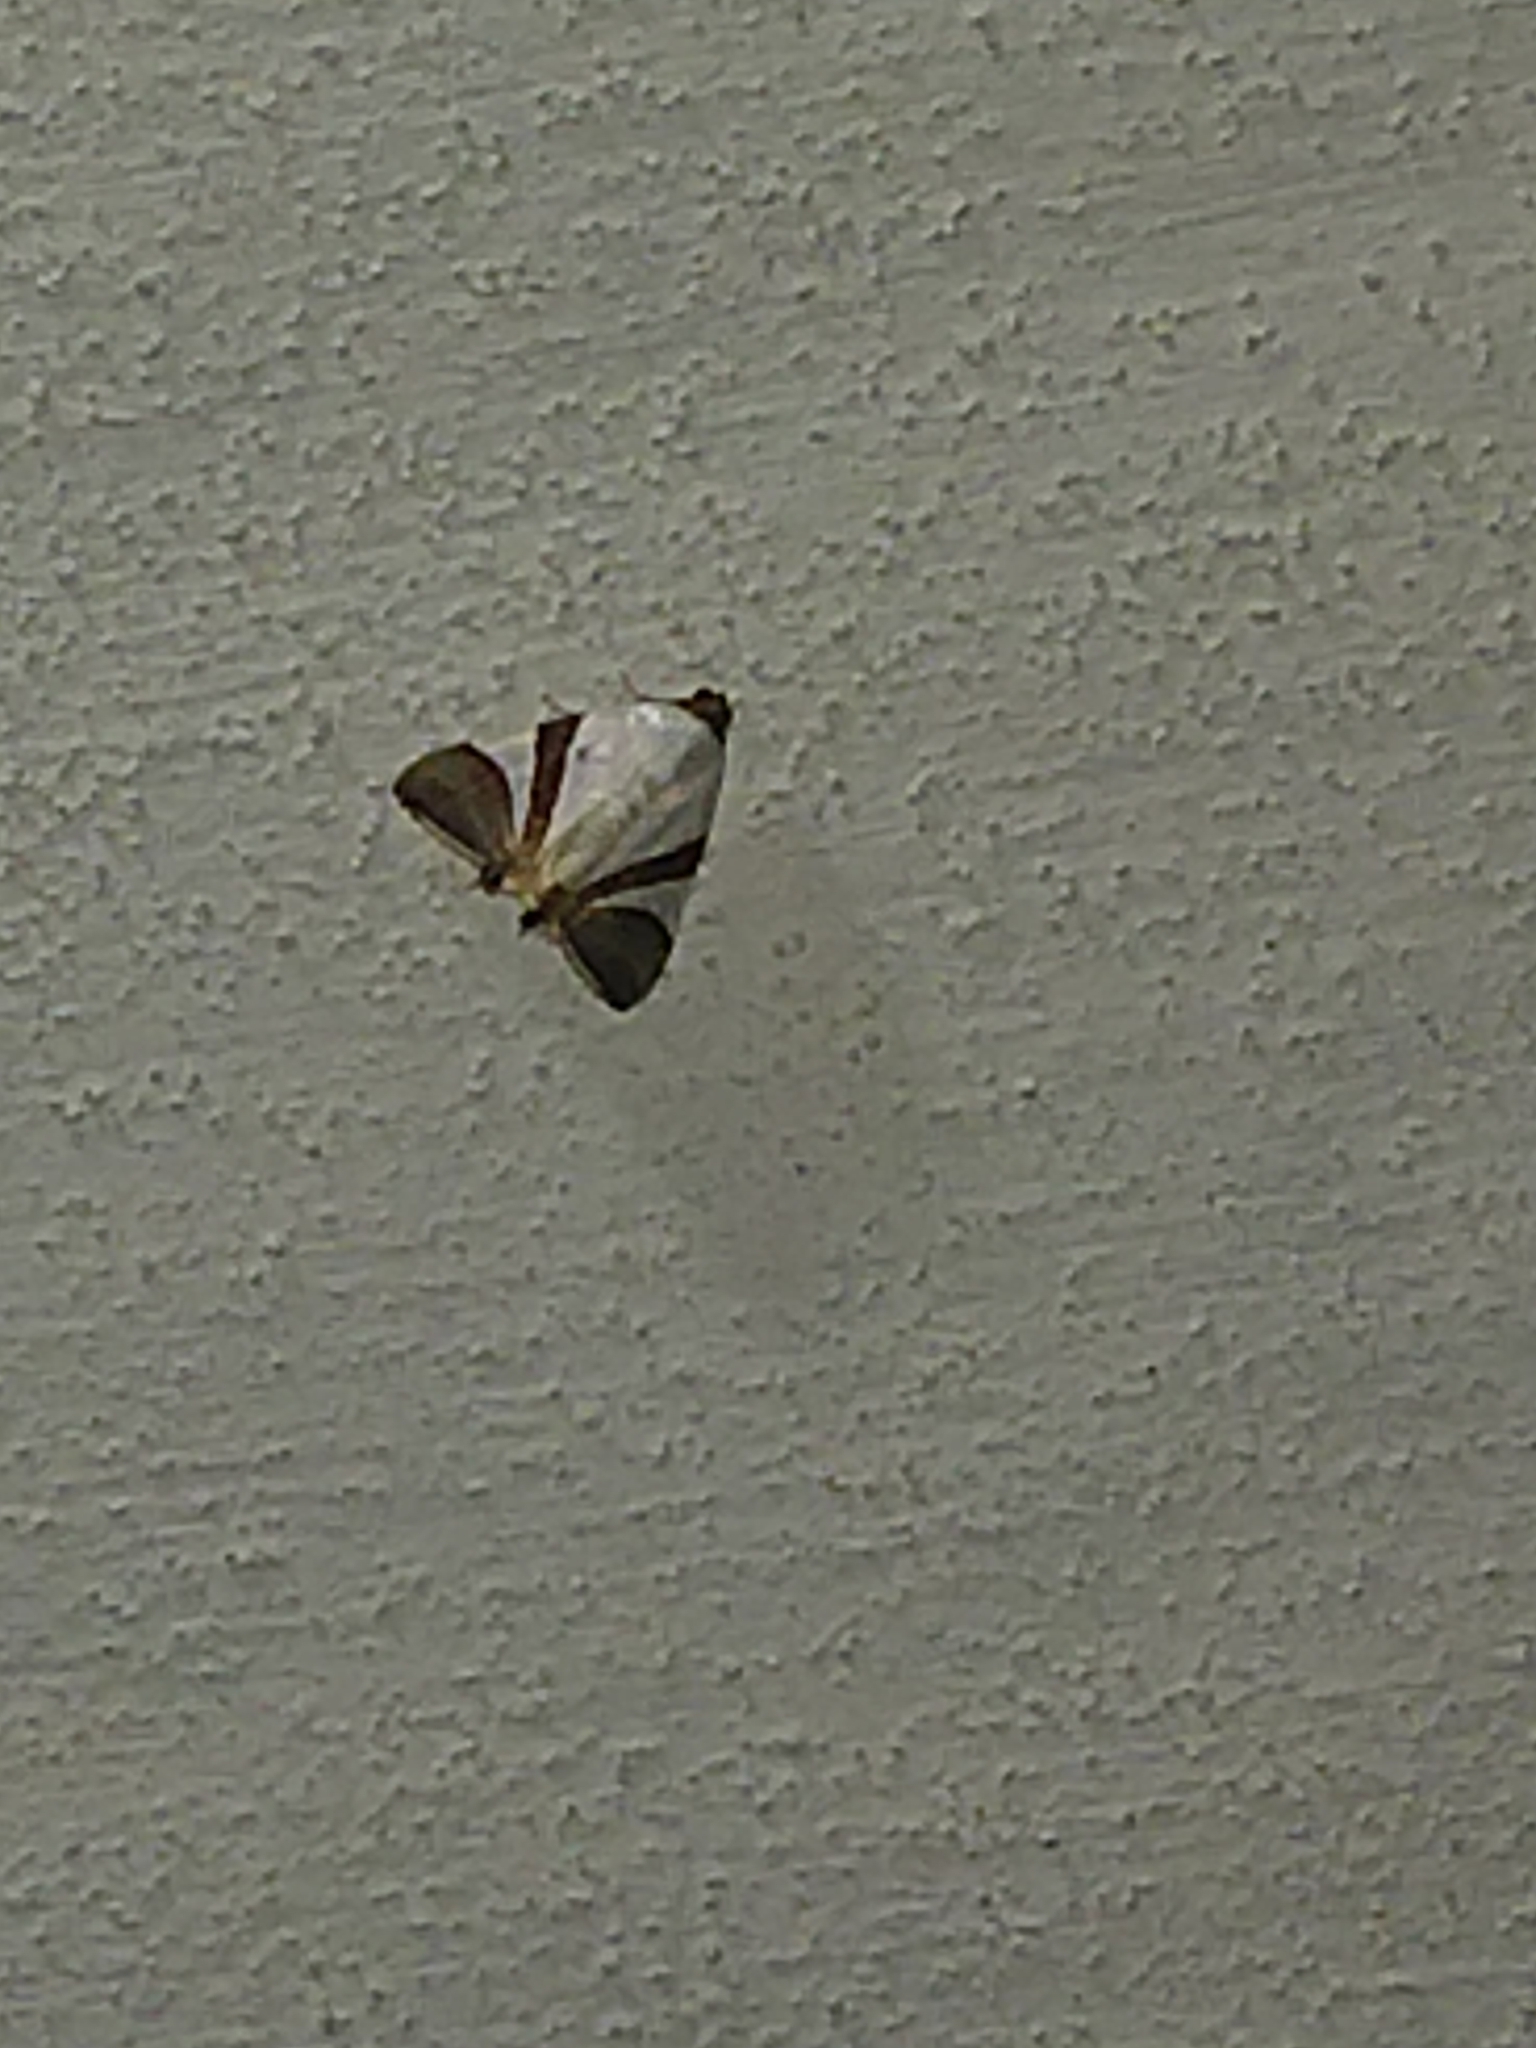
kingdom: Animalia
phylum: Arthropoda
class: Insecta
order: Lepidoptera
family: Erebidae
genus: Eulepidotis
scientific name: Eulepidotis rectimargo
